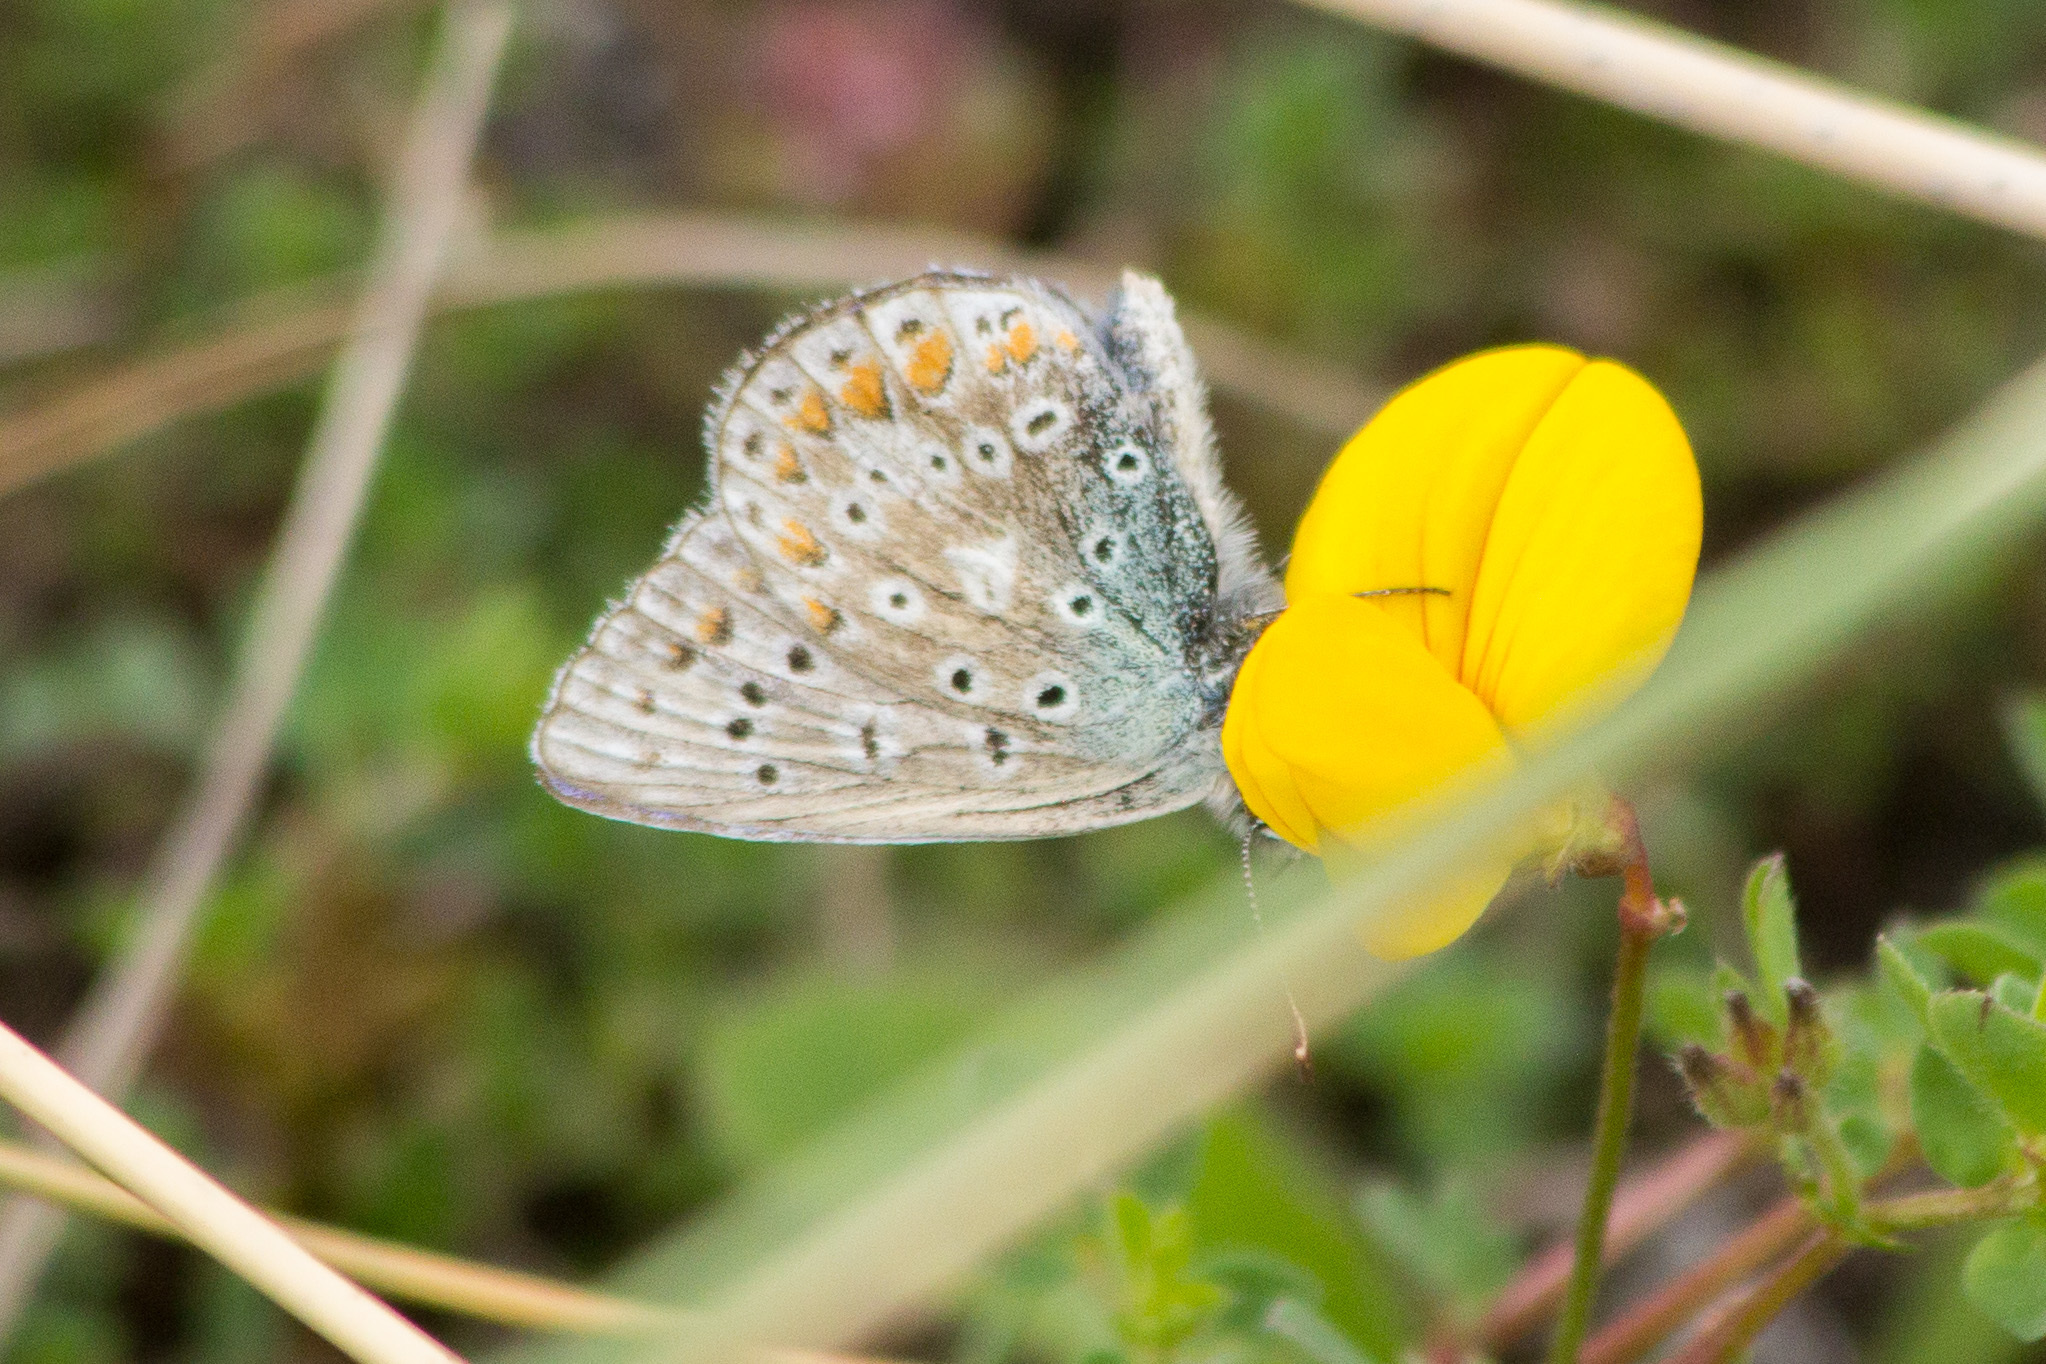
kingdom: Animalia
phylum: Arthropoda
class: Insecta
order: Lepidoptera
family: Lycaenidae
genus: Polyommatus
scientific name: Polyommatus icarus
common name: Common blue
